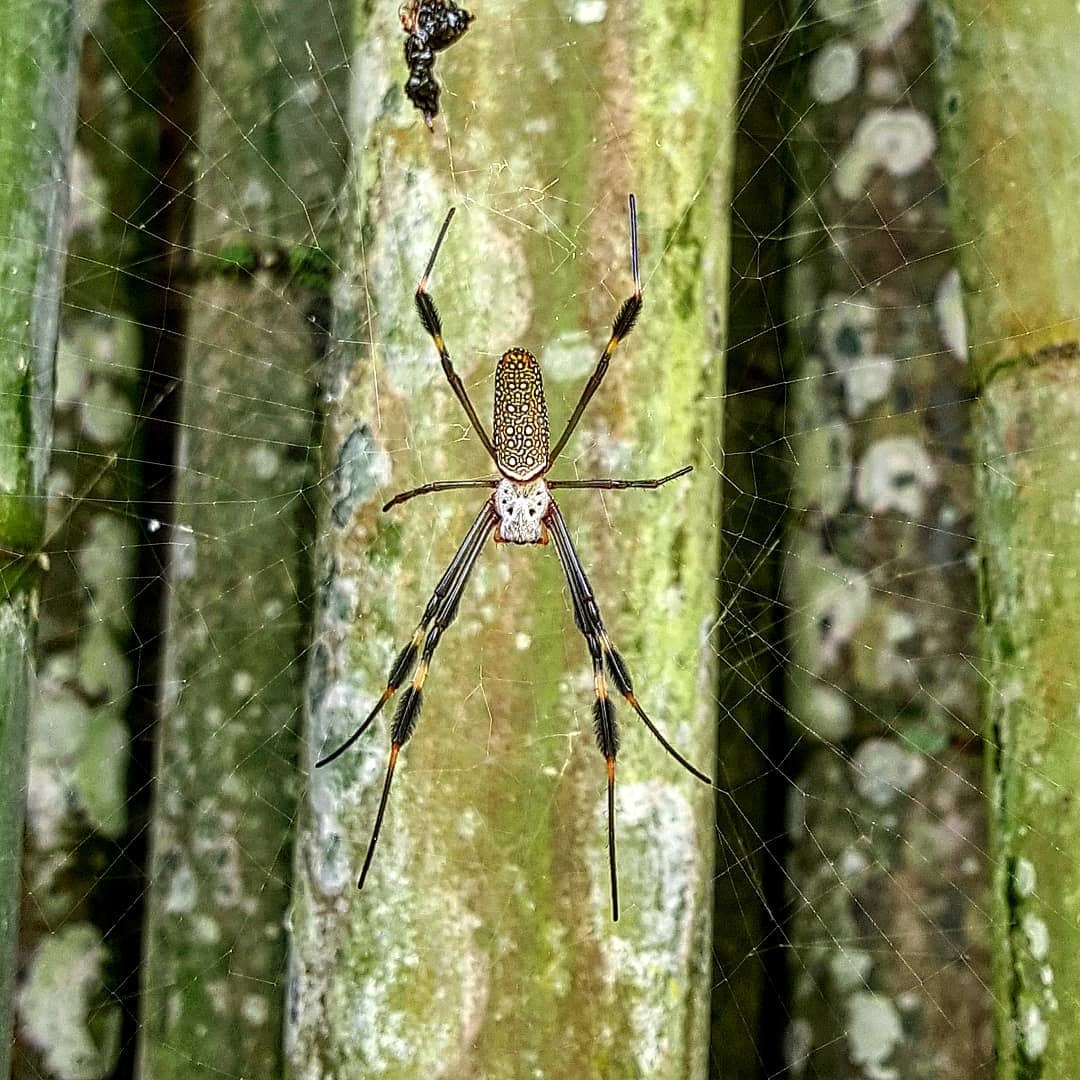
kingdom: Animalia
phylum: Arthropoda
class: Arachnida
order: Araneae
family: Araneidae
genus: Trichonephila
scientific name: Trichonephila clavipes
